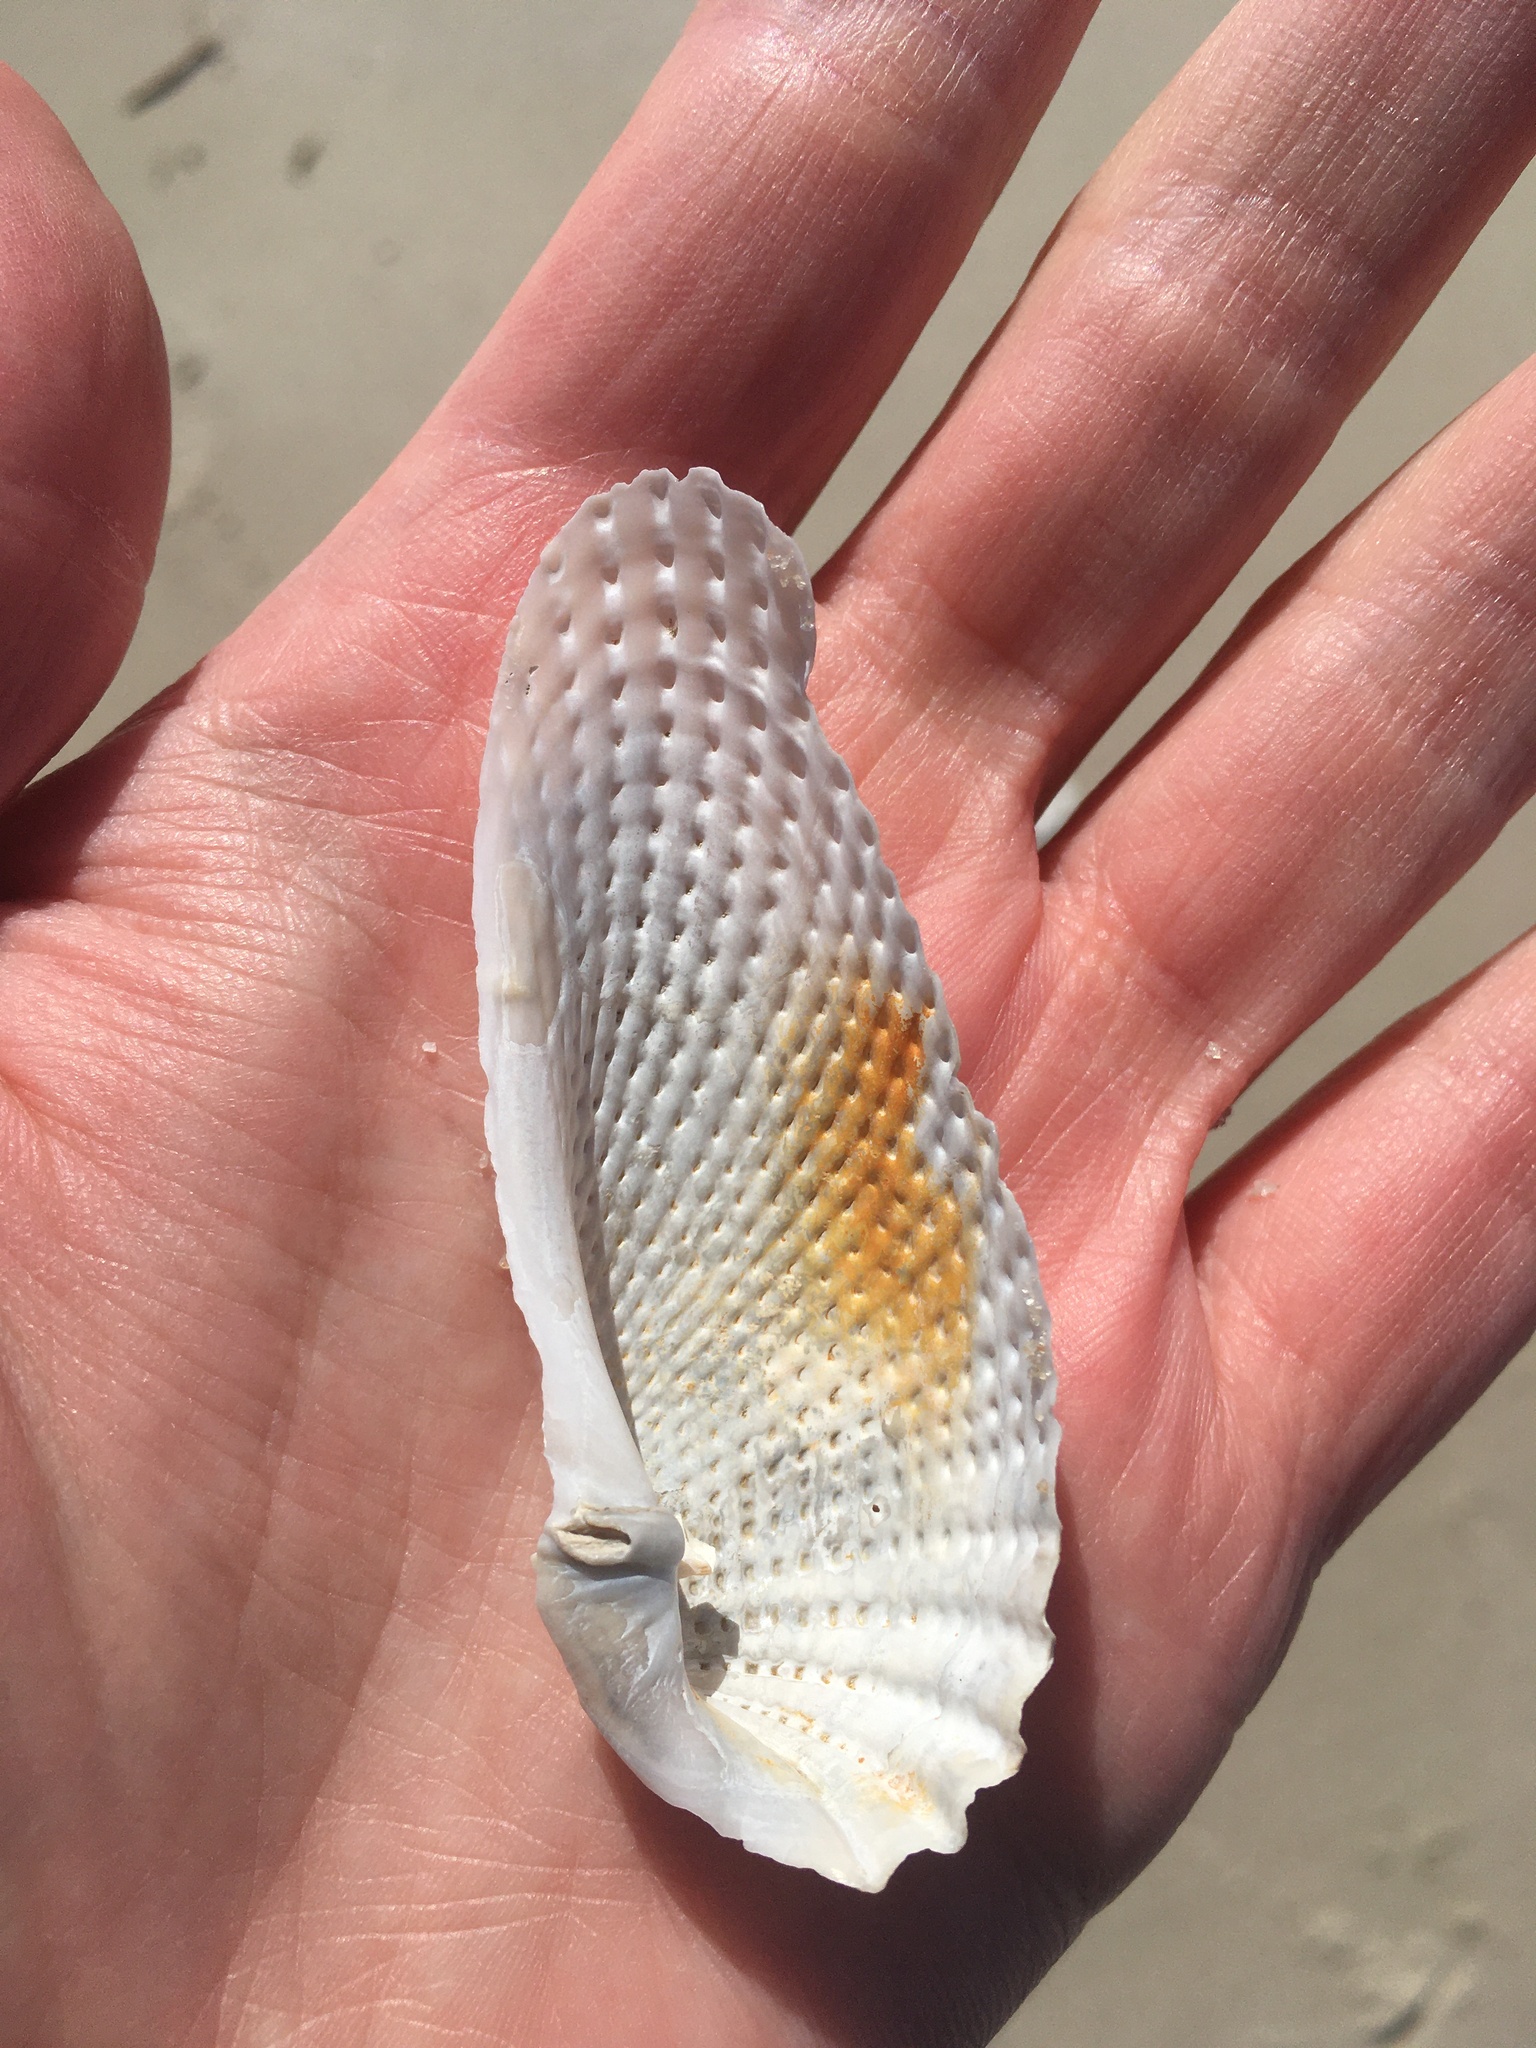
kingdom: Animalia
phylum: Mollusca
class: Bivalvia
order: Myida
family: Pholadidae
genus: Cyrtopleura
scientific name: Cyrtopleura costata
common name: Angel wing
